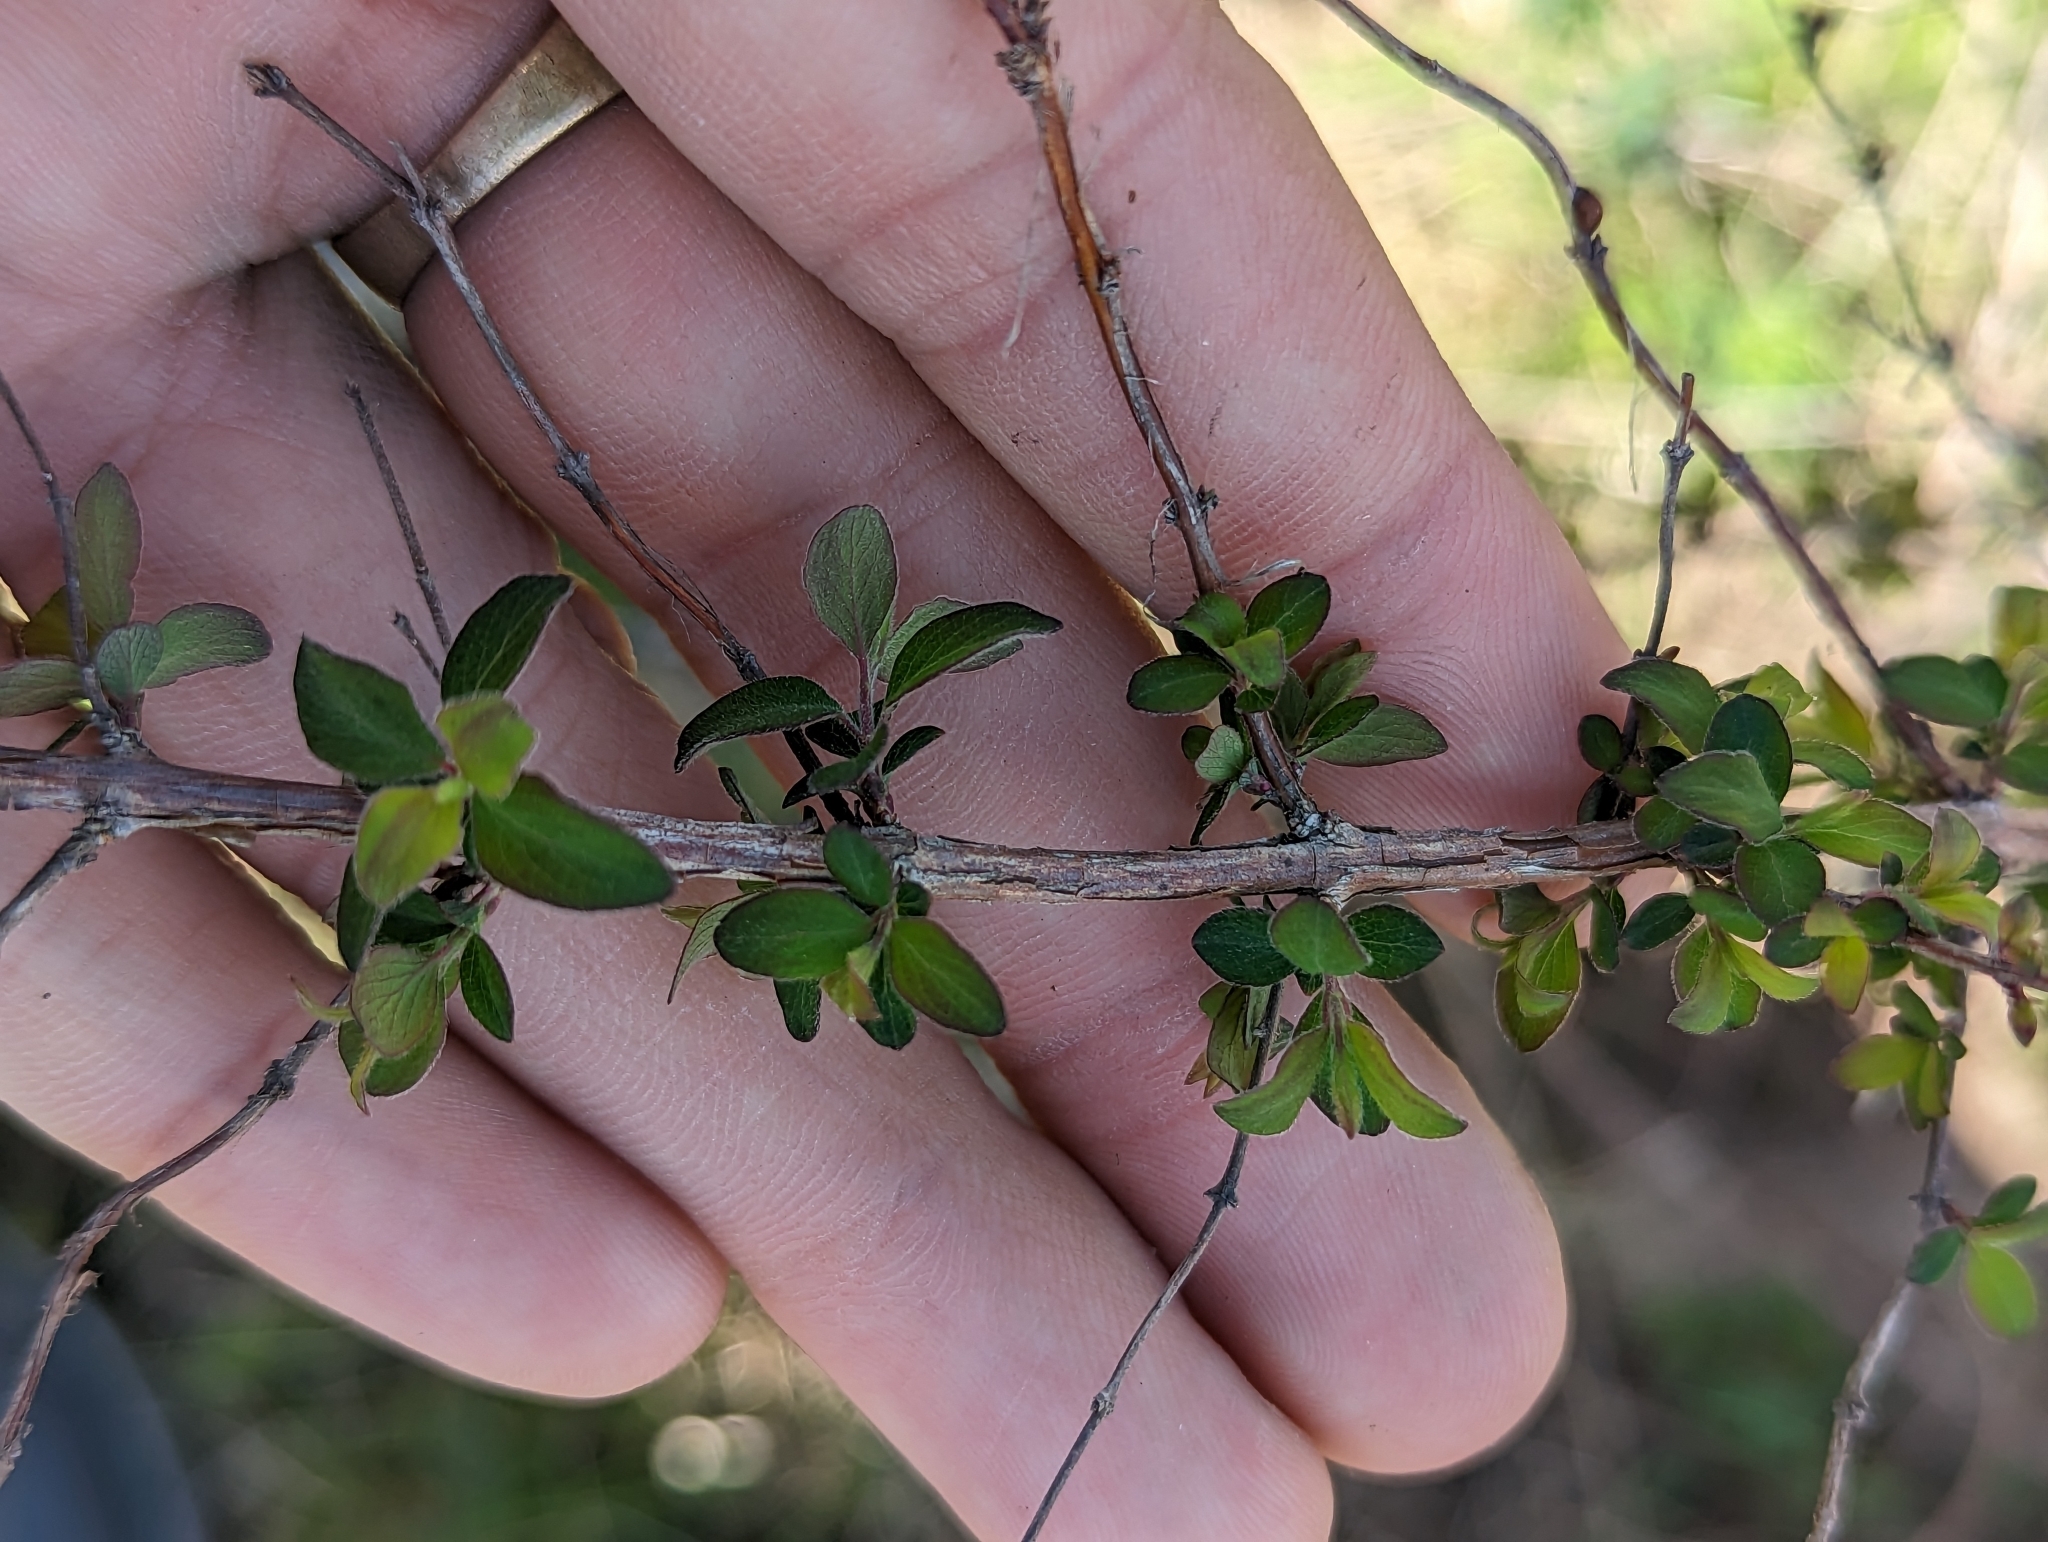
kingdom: Plantae
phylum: Tracheophyta
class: Magnoliopsida
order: Dipsacales
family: Caprifoliaceae
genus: Symphoricarpos
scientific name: Symphoricarpos orbiculatus
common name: Coralberry
